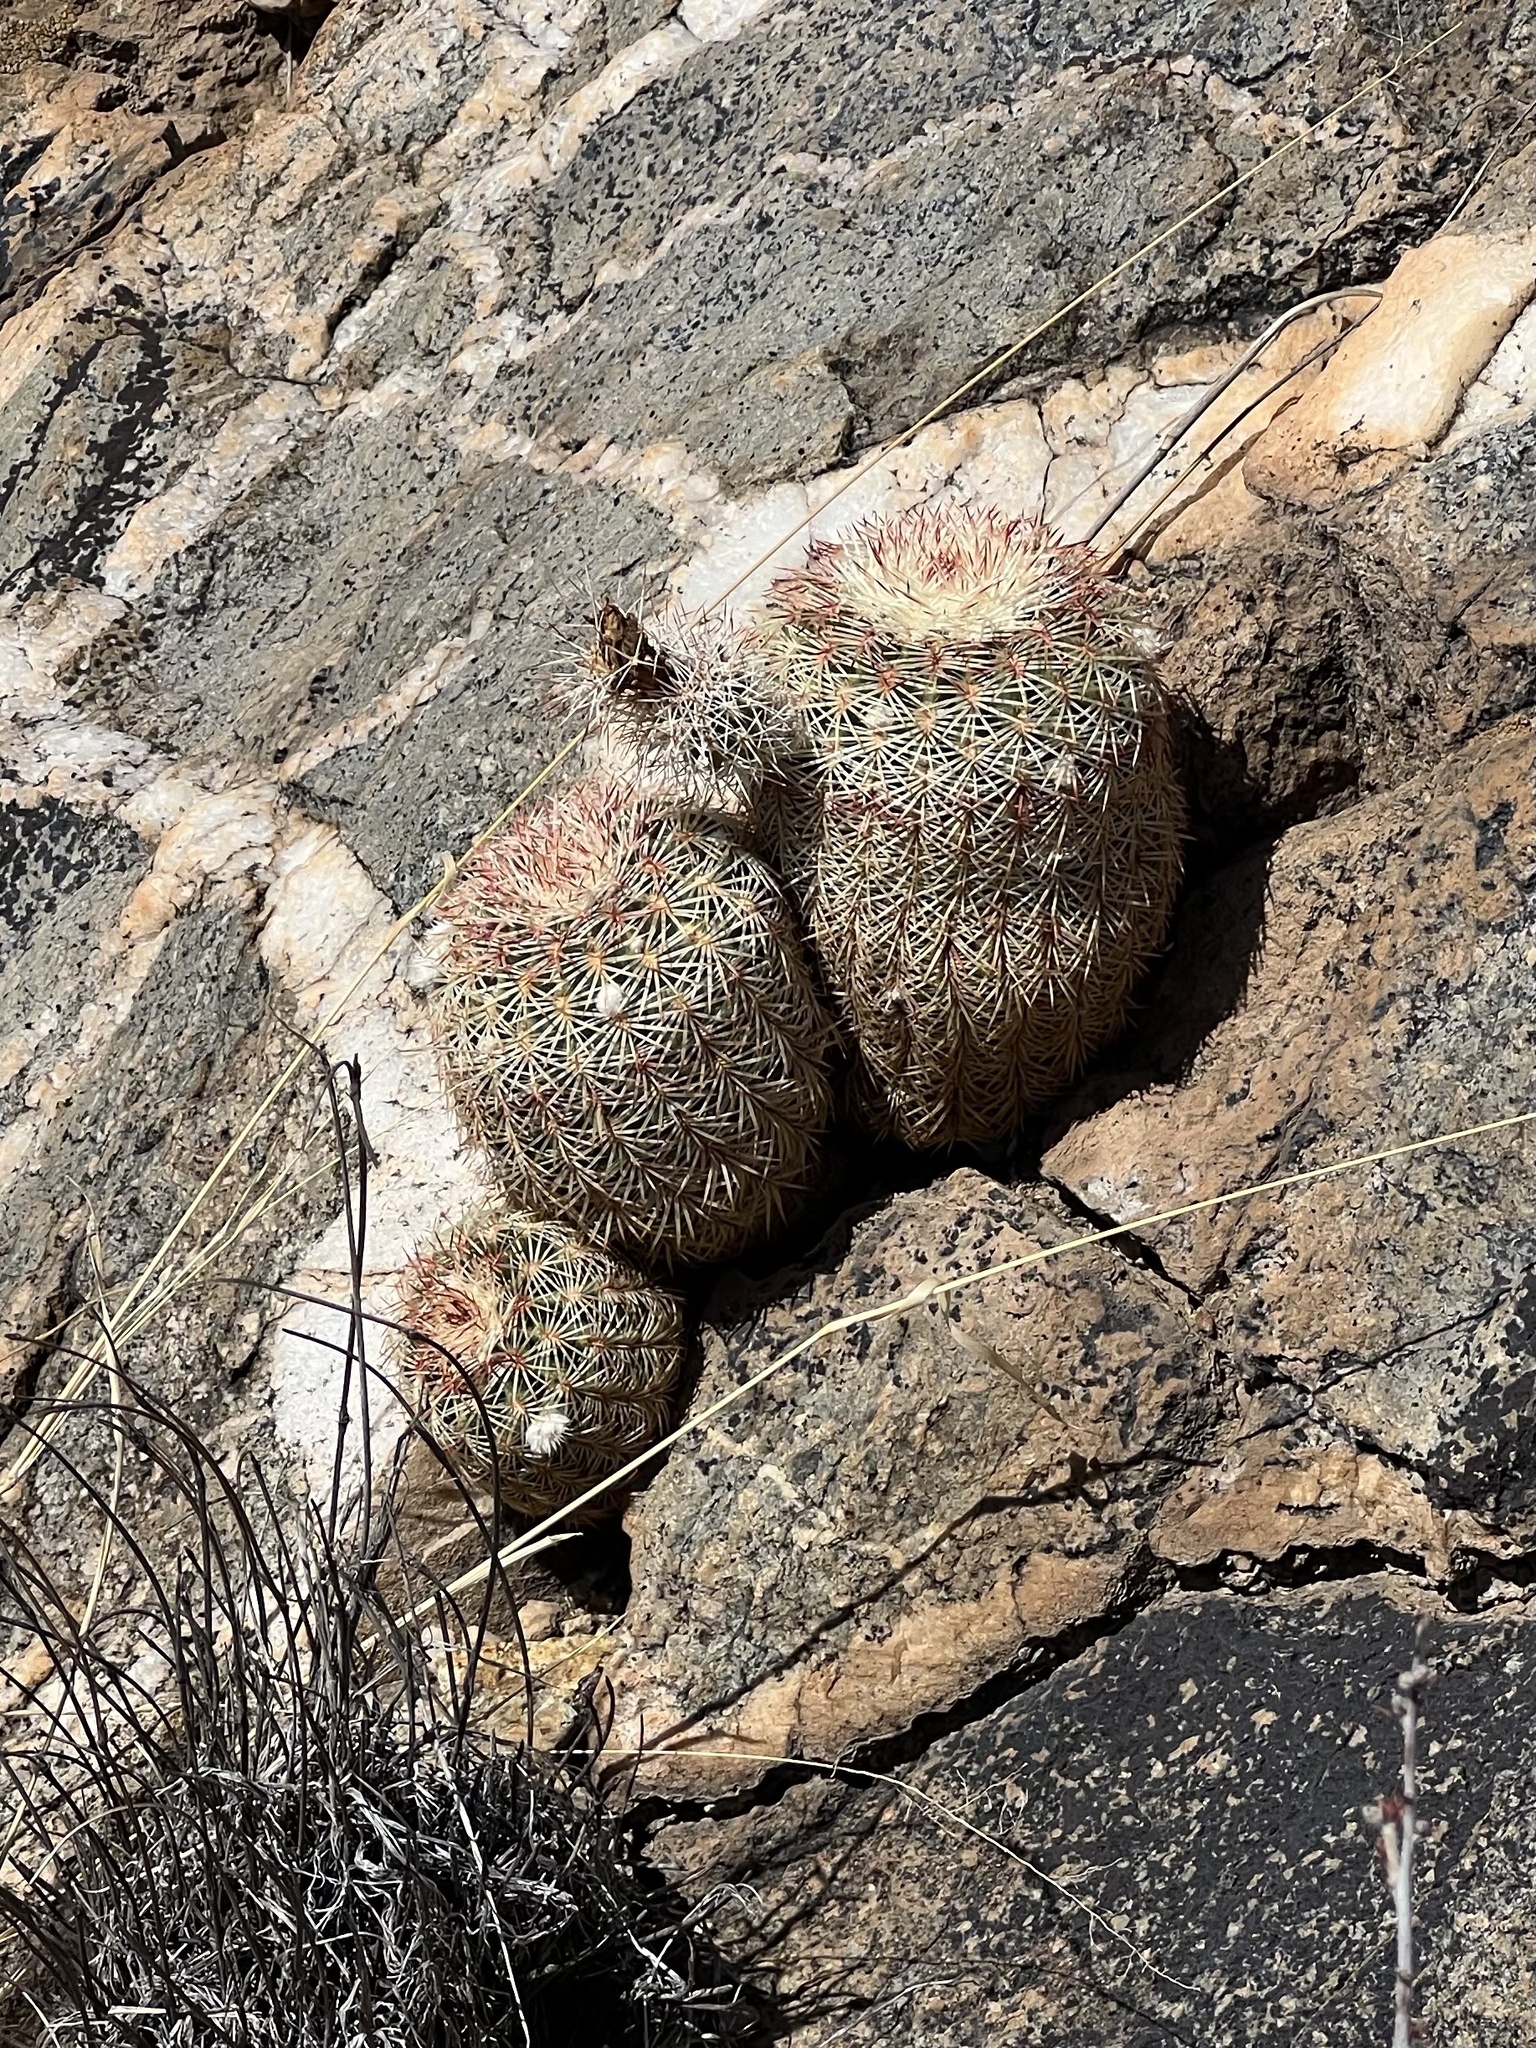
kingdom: Plantae
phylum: Tracheophyta
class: Magnoliopsida
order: Caryophyllales
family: Cactaceae
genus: Echinocereus
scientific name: Echinocereus rigidissimus
